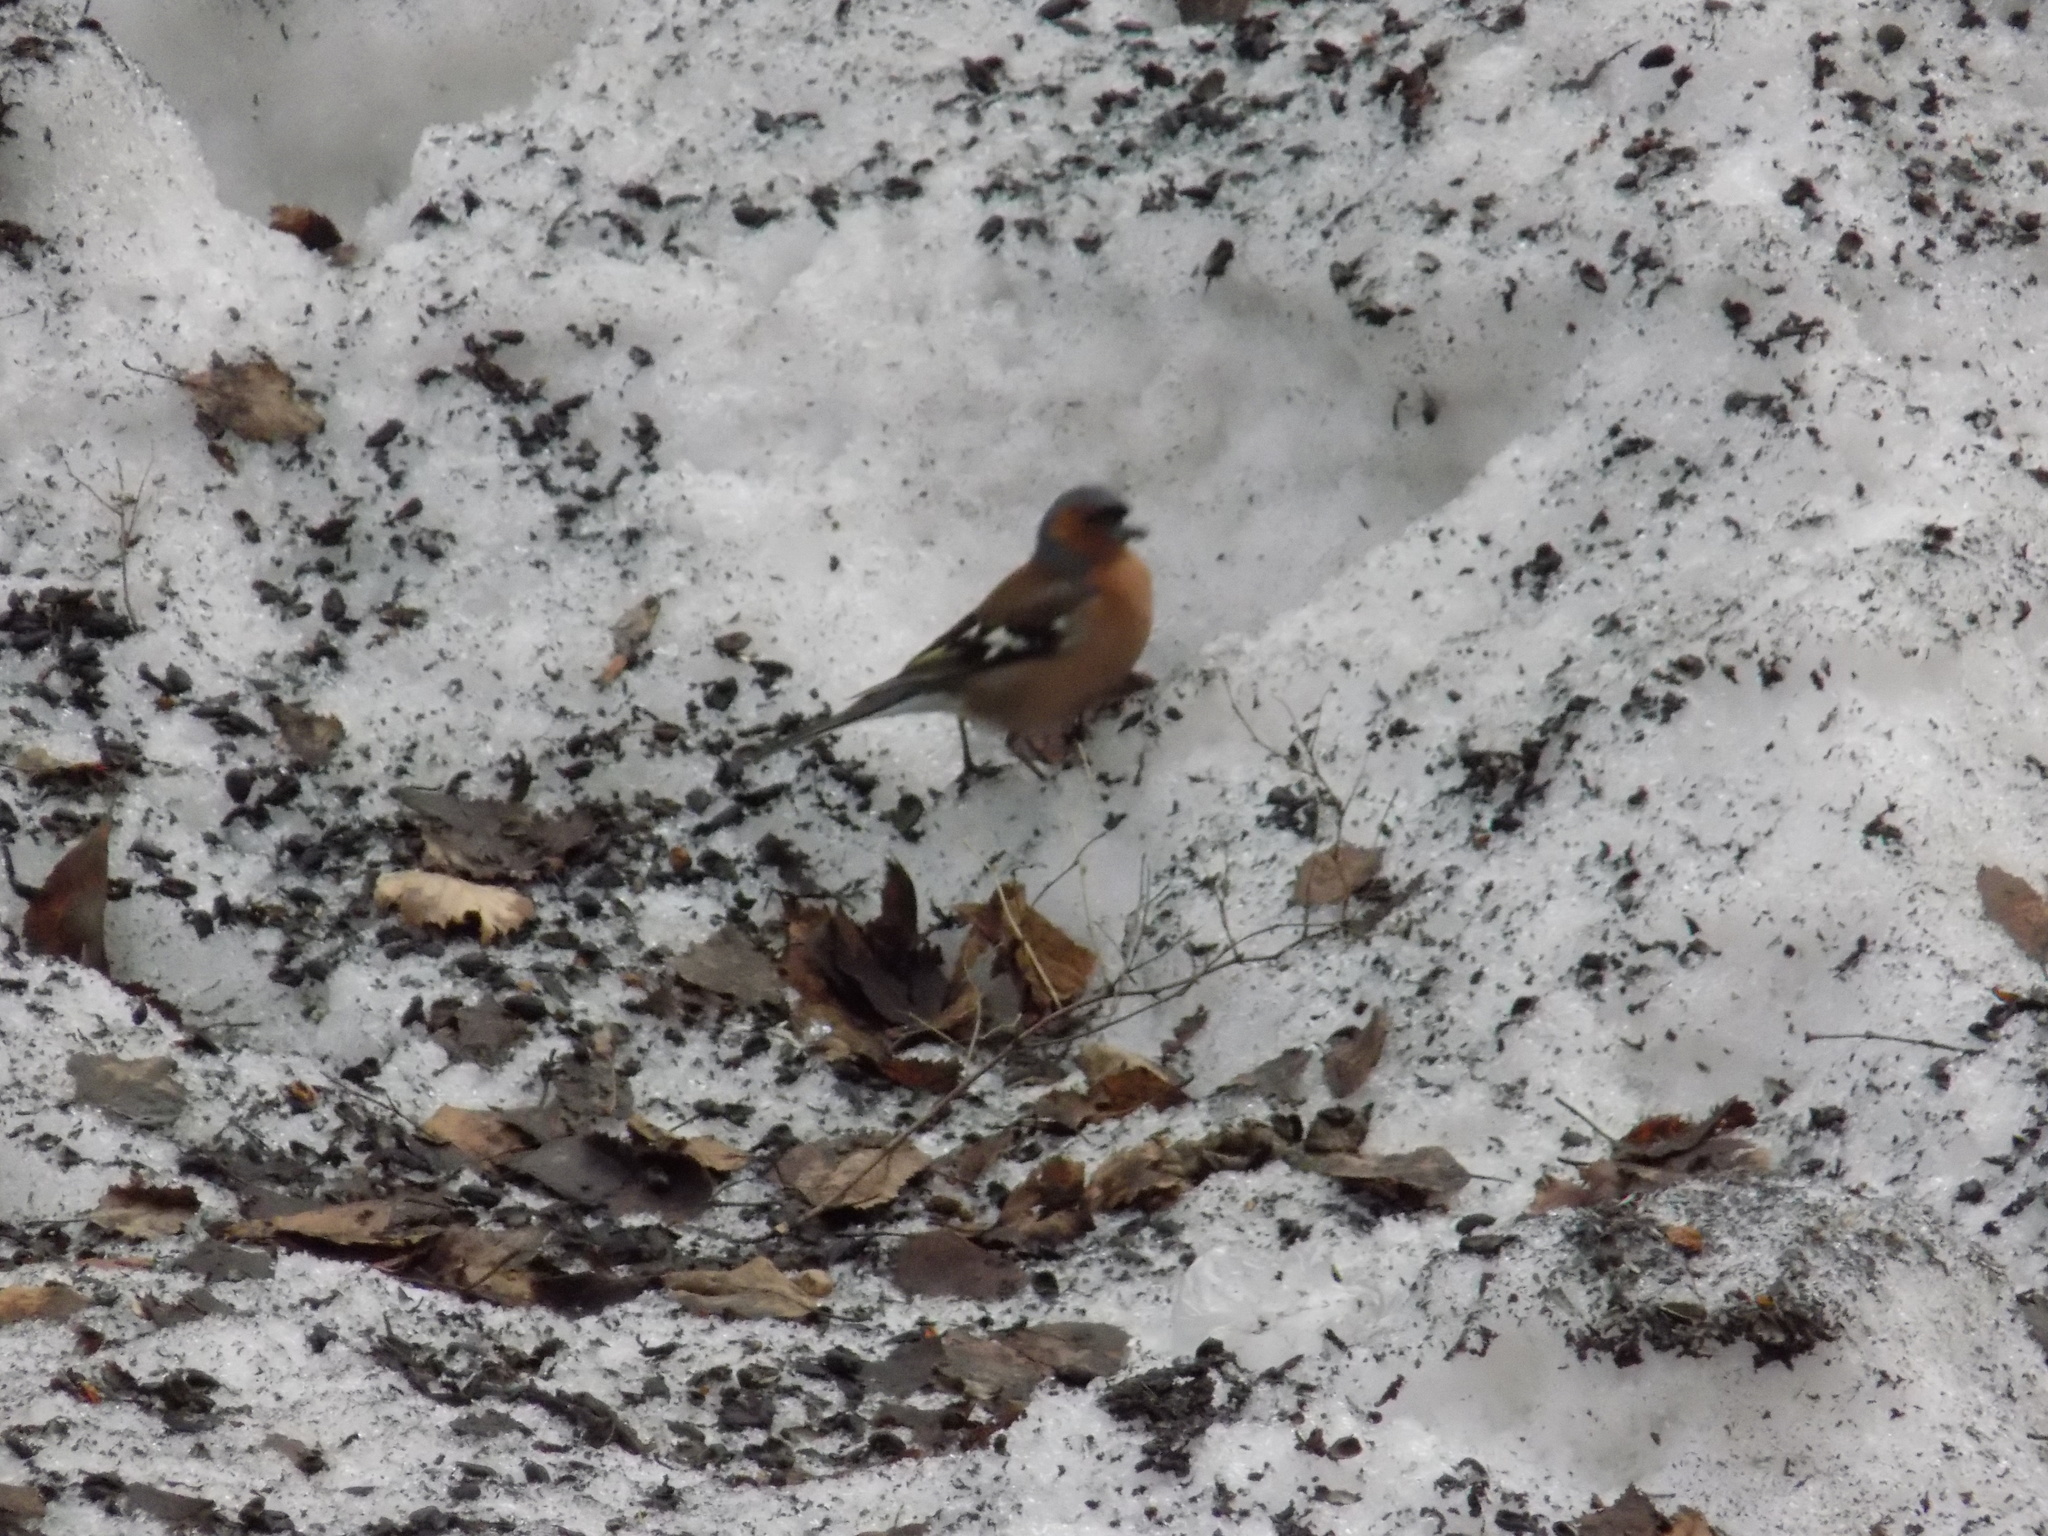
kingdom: Animalia
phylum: Chordata
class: Aves
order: Passeriformes
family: Fringillidae
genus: Fringilla
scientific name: Fringilla coelebs
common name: Common chaffinch
